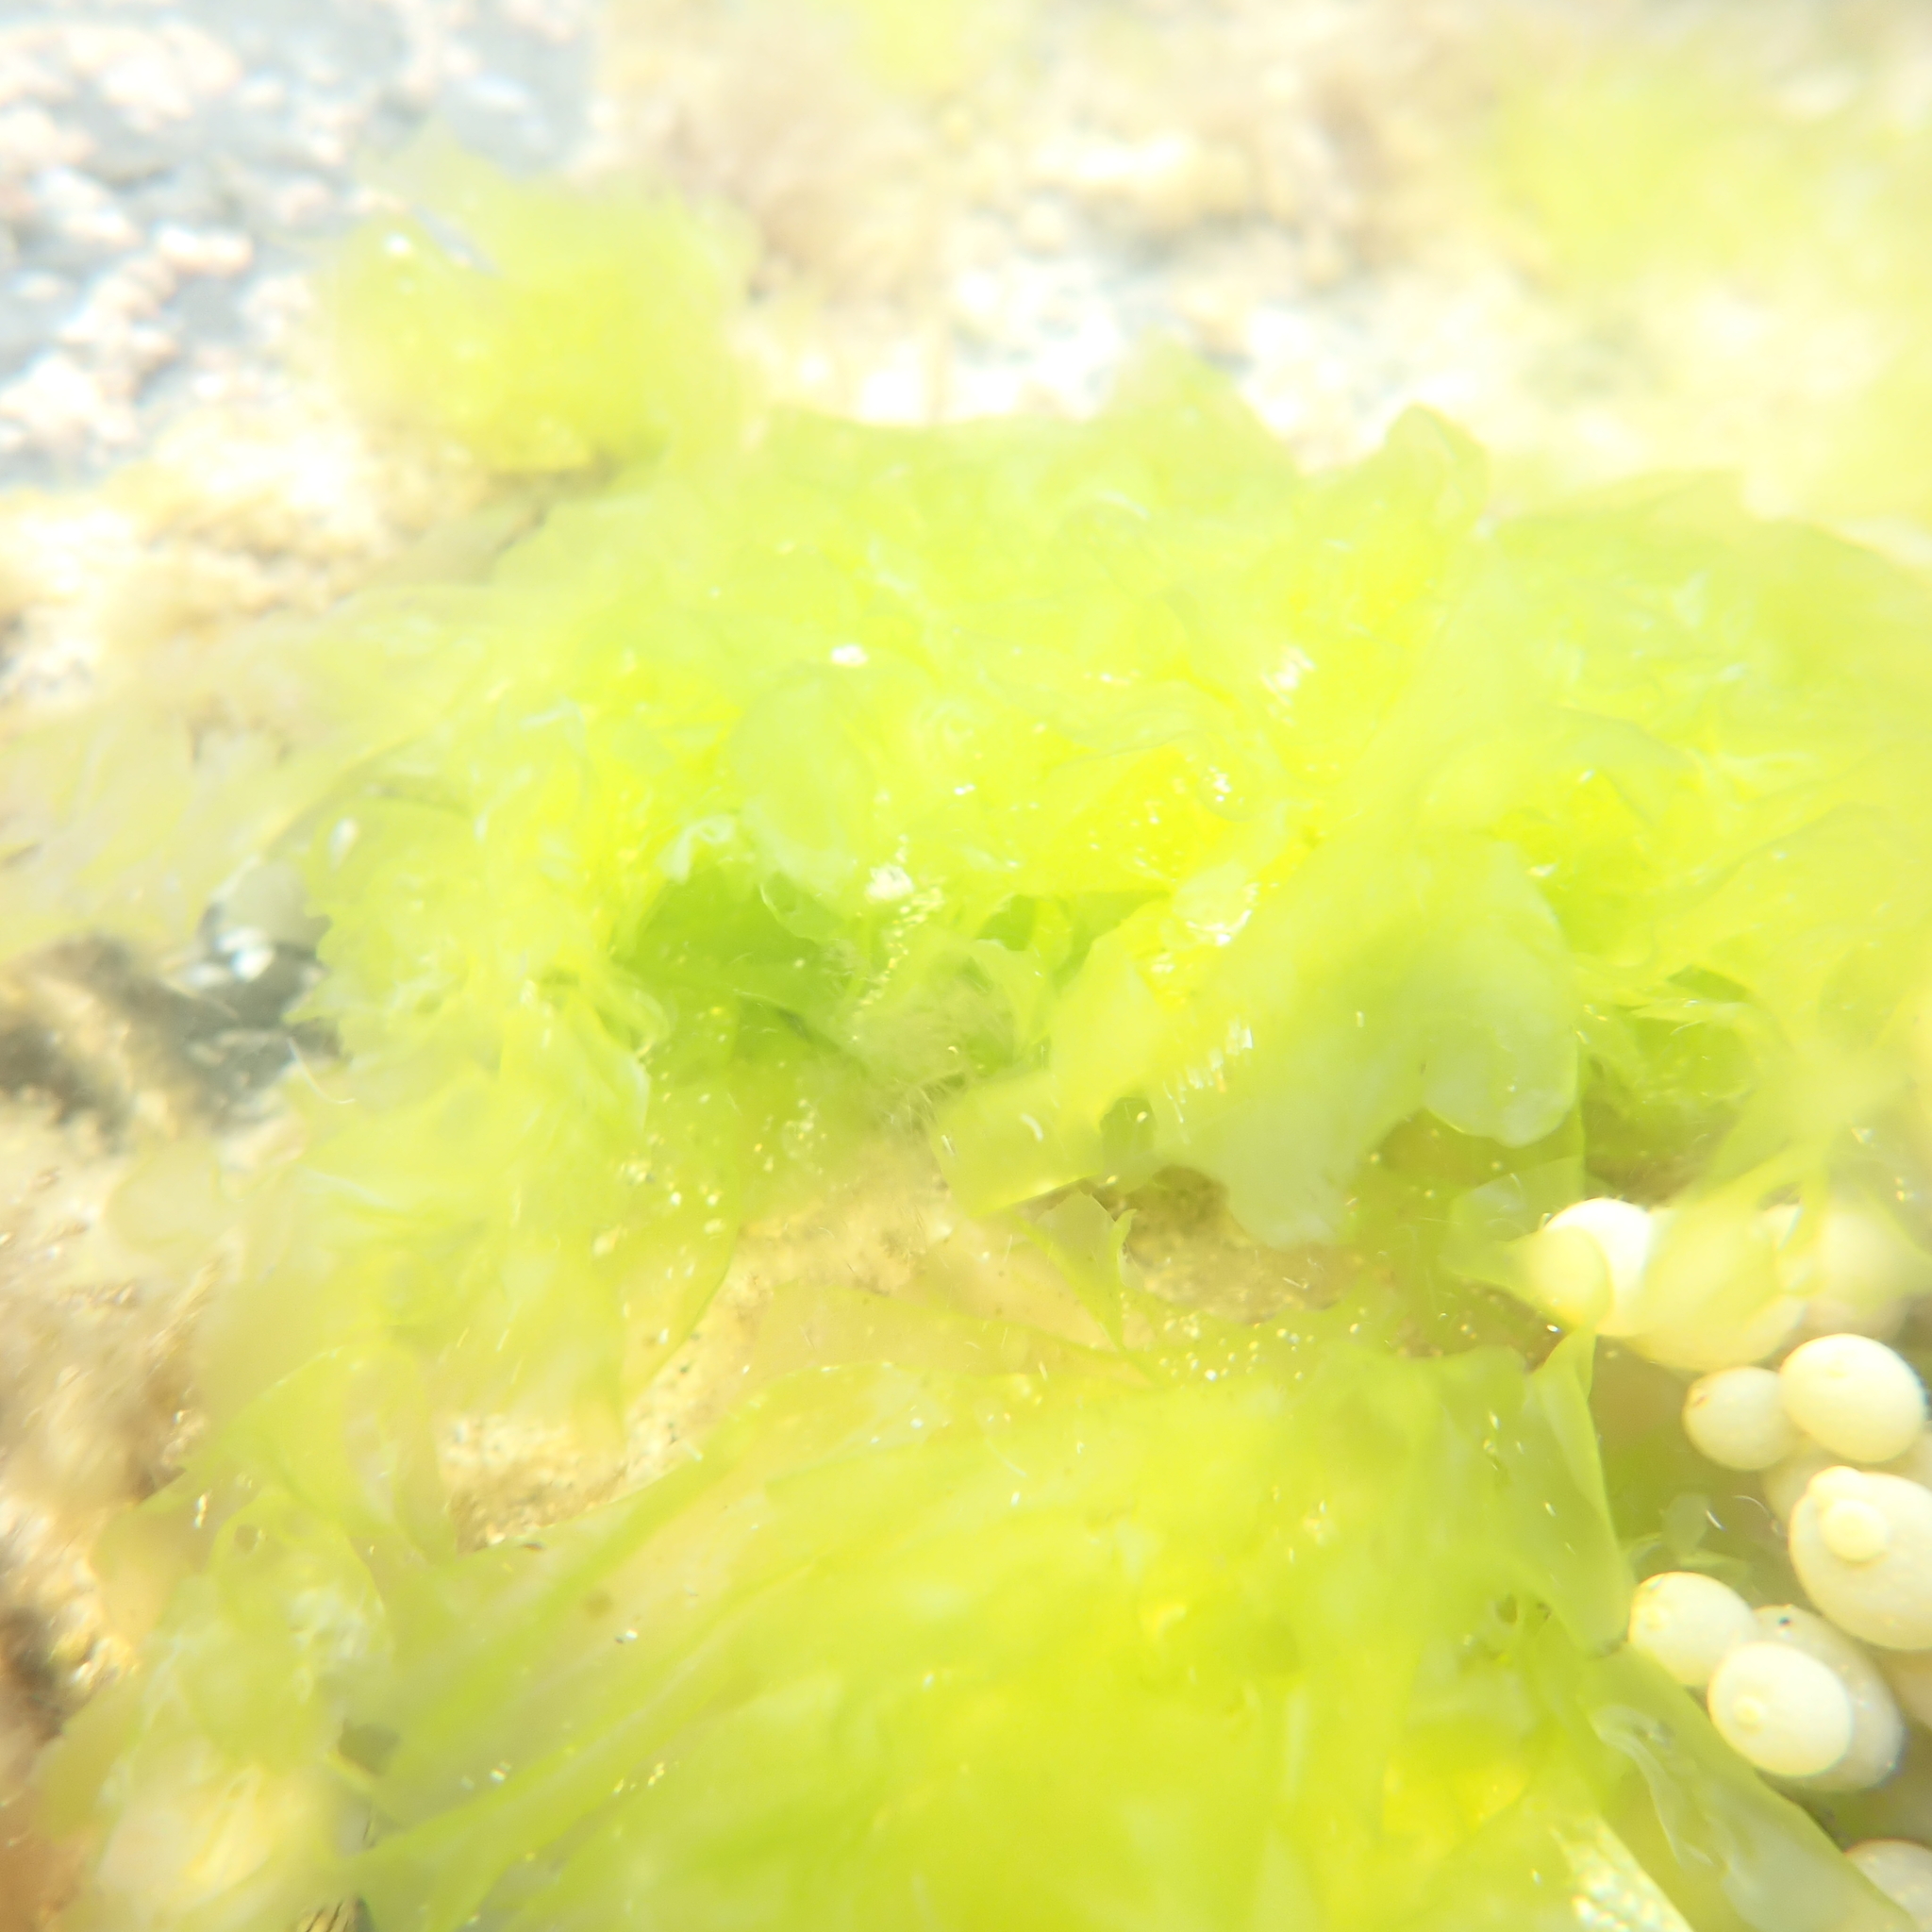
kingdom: Plantae
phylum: Chlorophyta
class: Ulvophyceae
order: Ulvales
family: Ulvaceae
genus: Ulva
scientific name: Ulva
